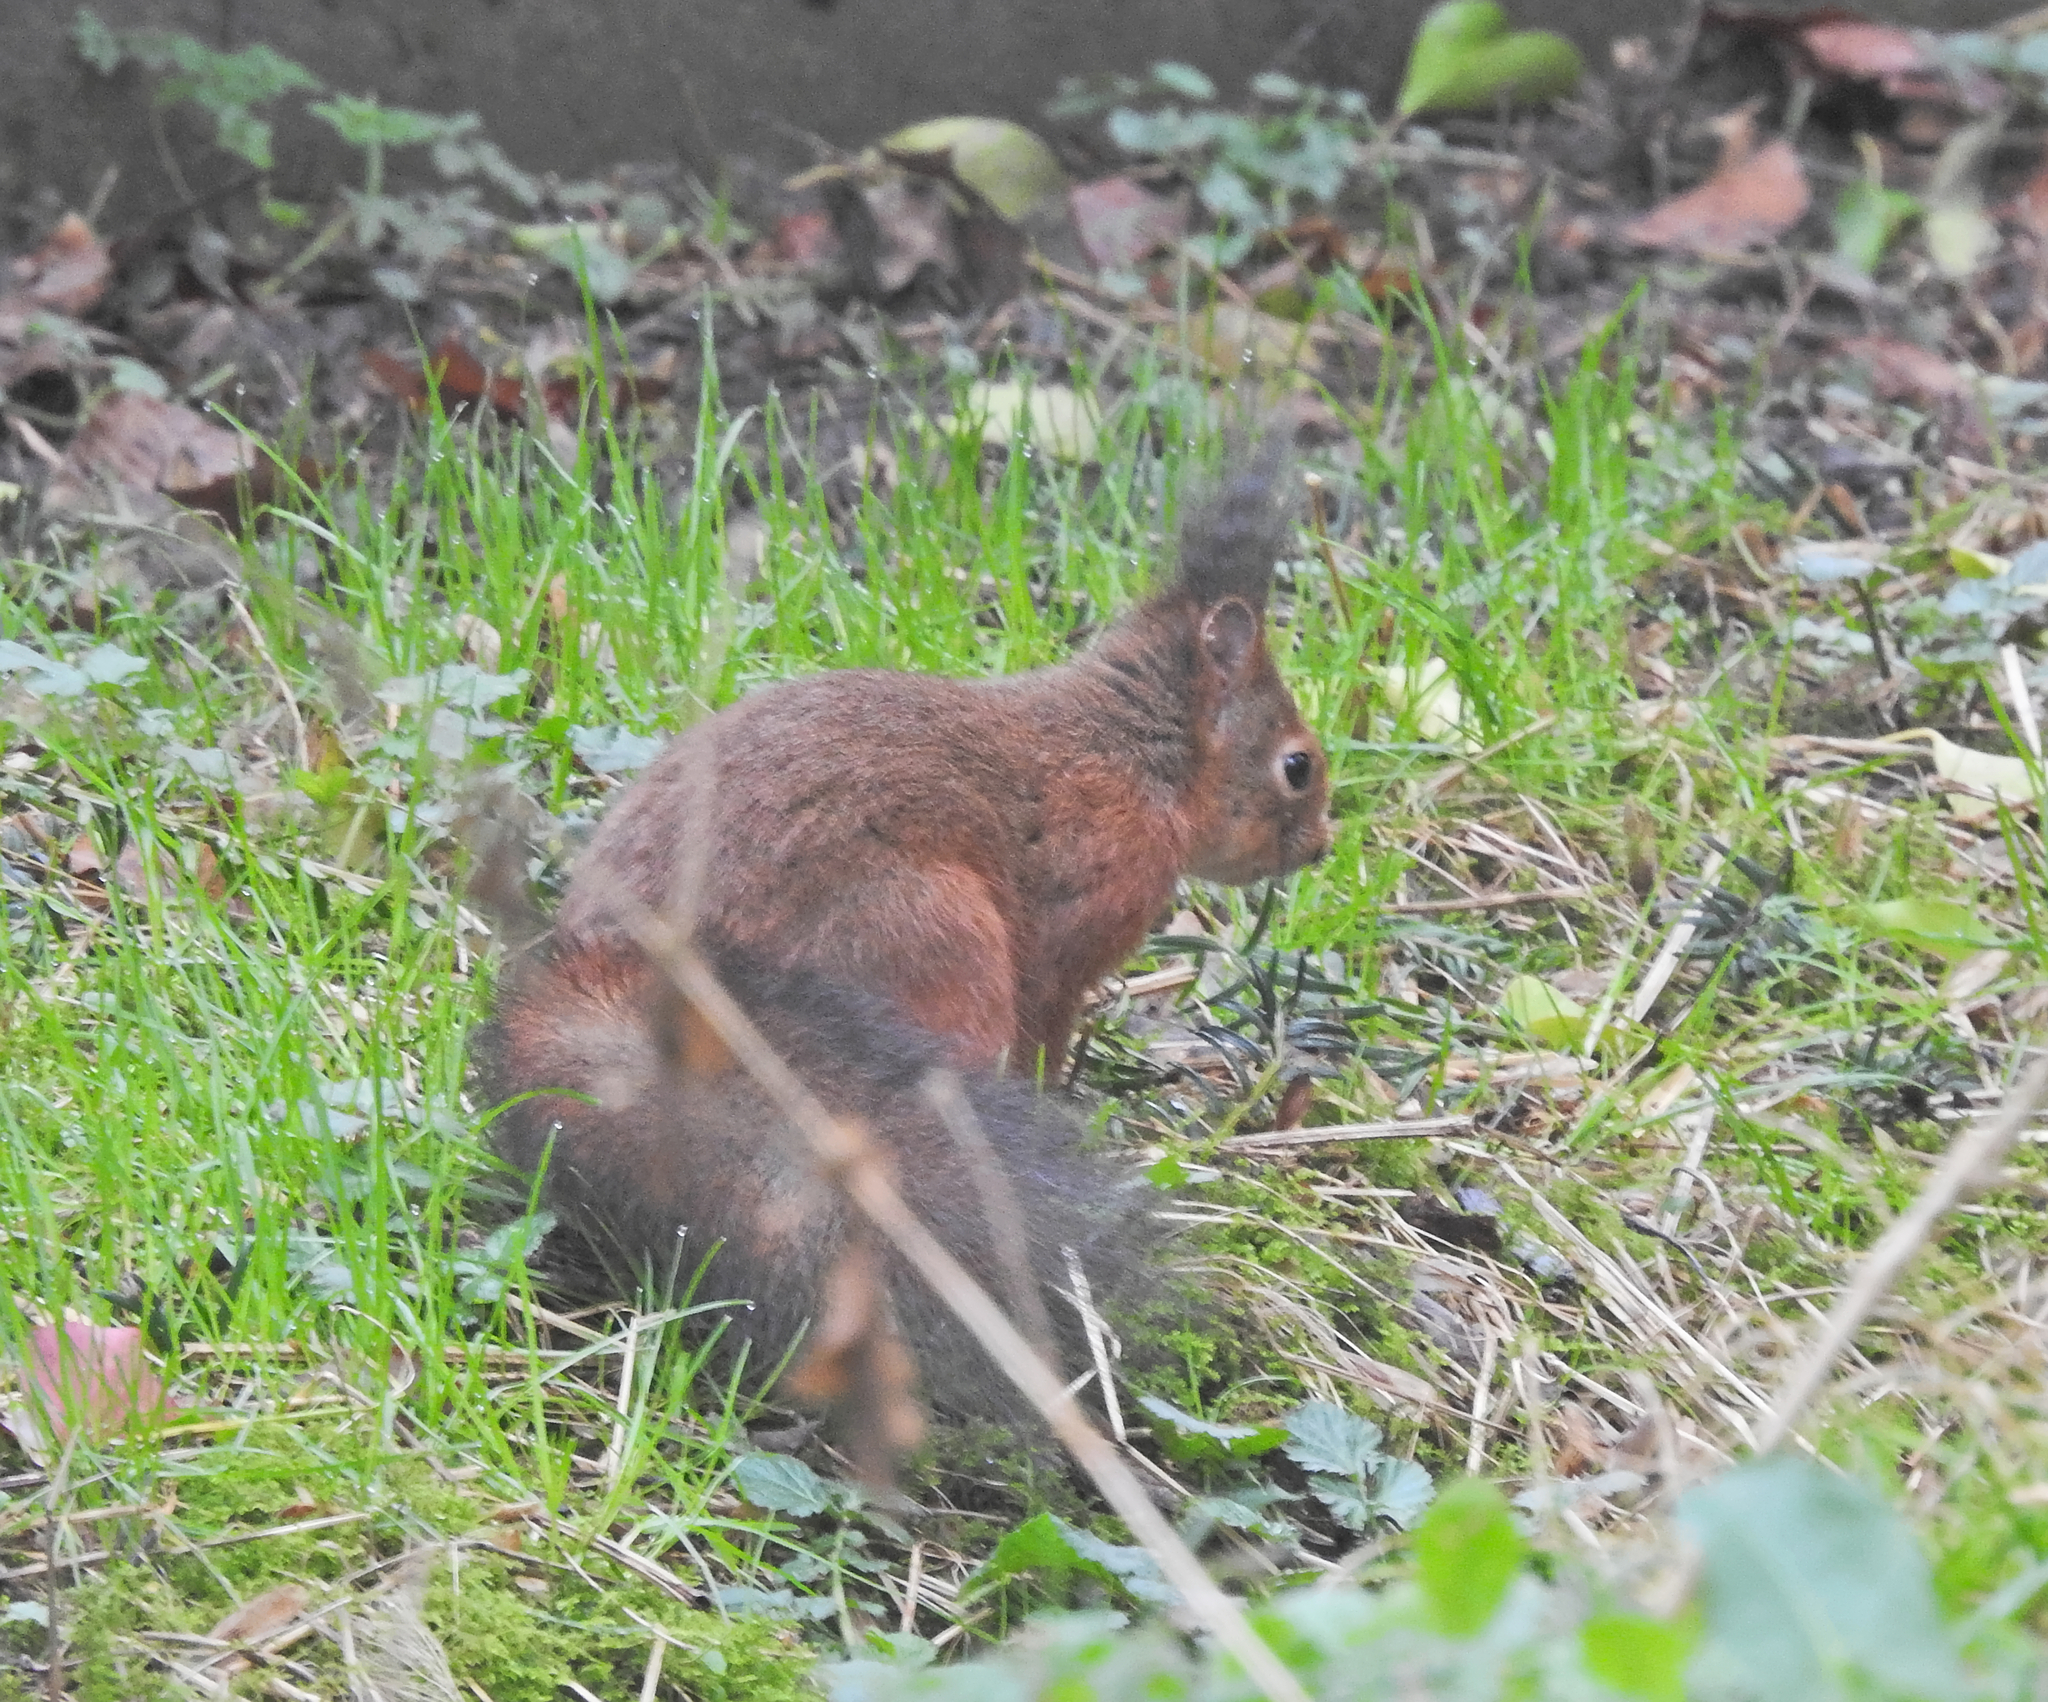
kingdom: Animalia
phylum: Chordata
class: Mammalia
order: Rodentia
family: Sciuridae
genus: Sciurus
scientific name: Sciurus vulgaris
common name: Eurasian red squirrel
